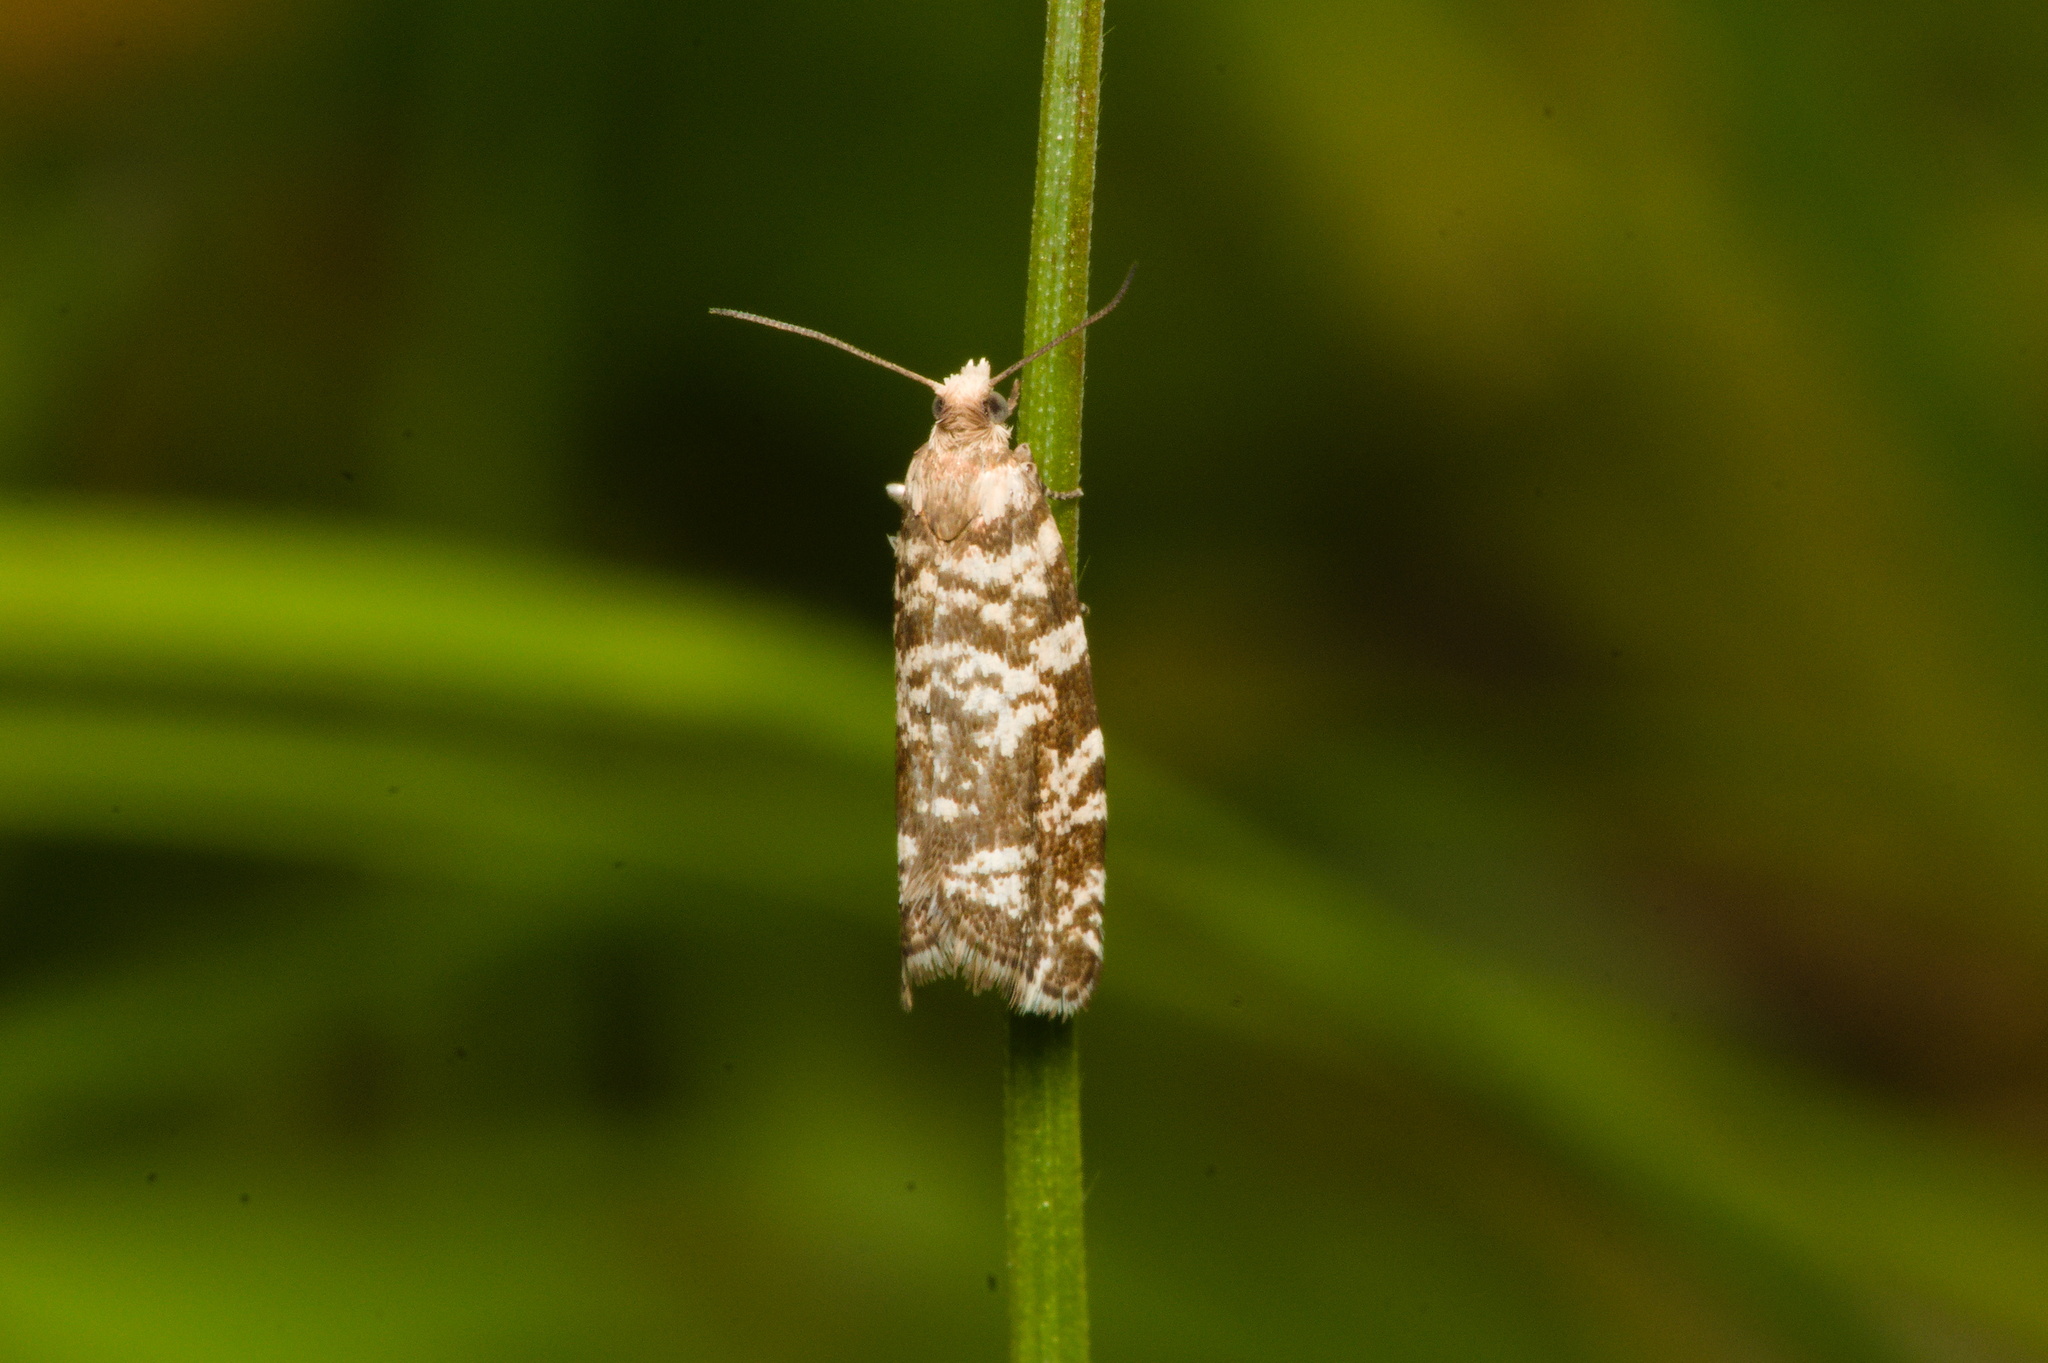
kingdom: Animalia
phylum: Arthropoda
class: Insecta
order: Lepidoptera
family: Tortricidae
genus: Epinotia
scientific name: Epinotia tedella
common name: Common spruce bell
